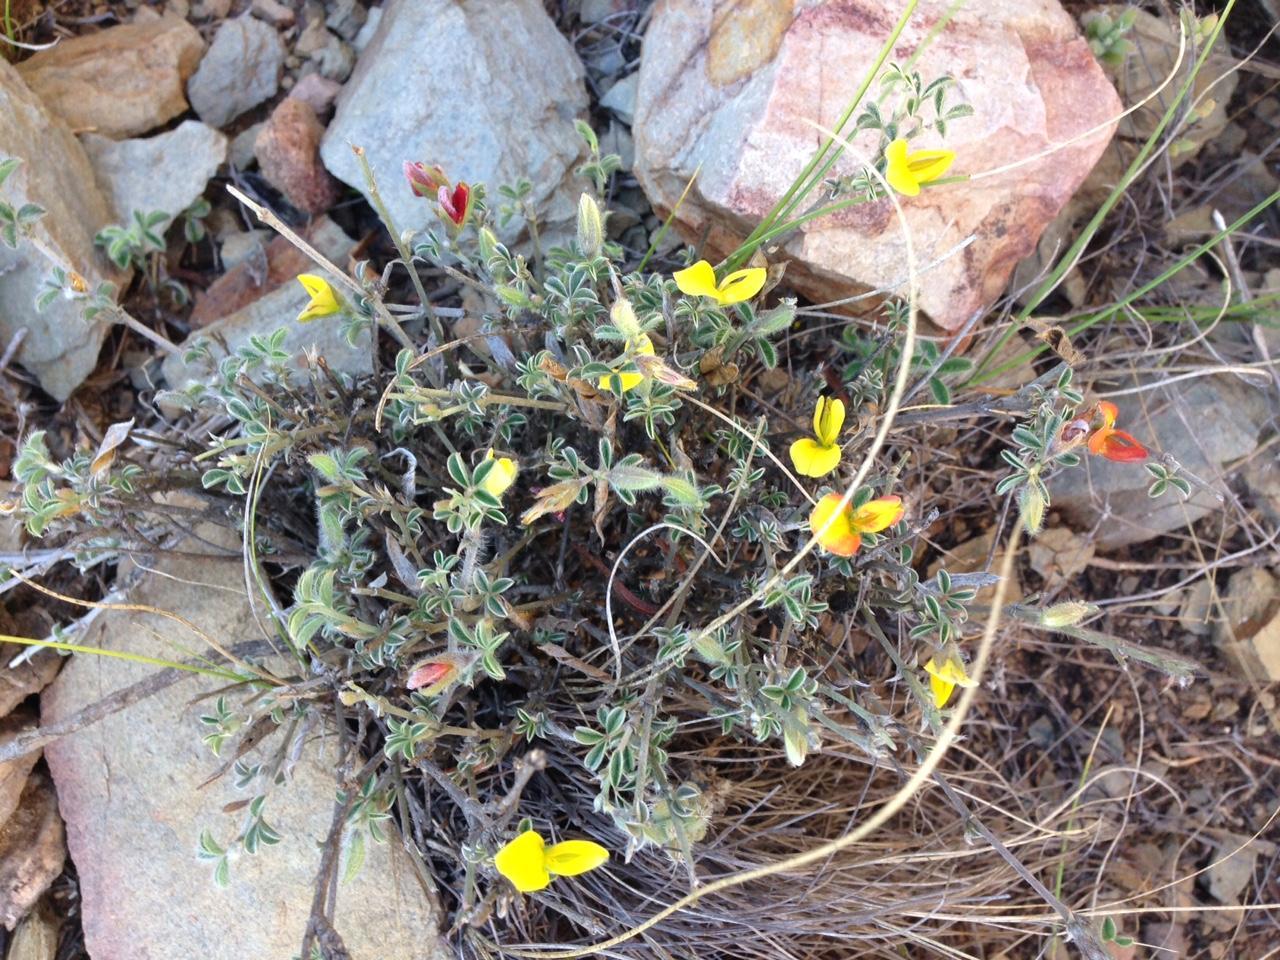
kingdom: Plantae
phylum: Tracheophyta
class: Magnoliopsida
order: Fabales
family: Fabaceae
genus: Argyrolobium
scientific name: Argyrolobium argenteum
